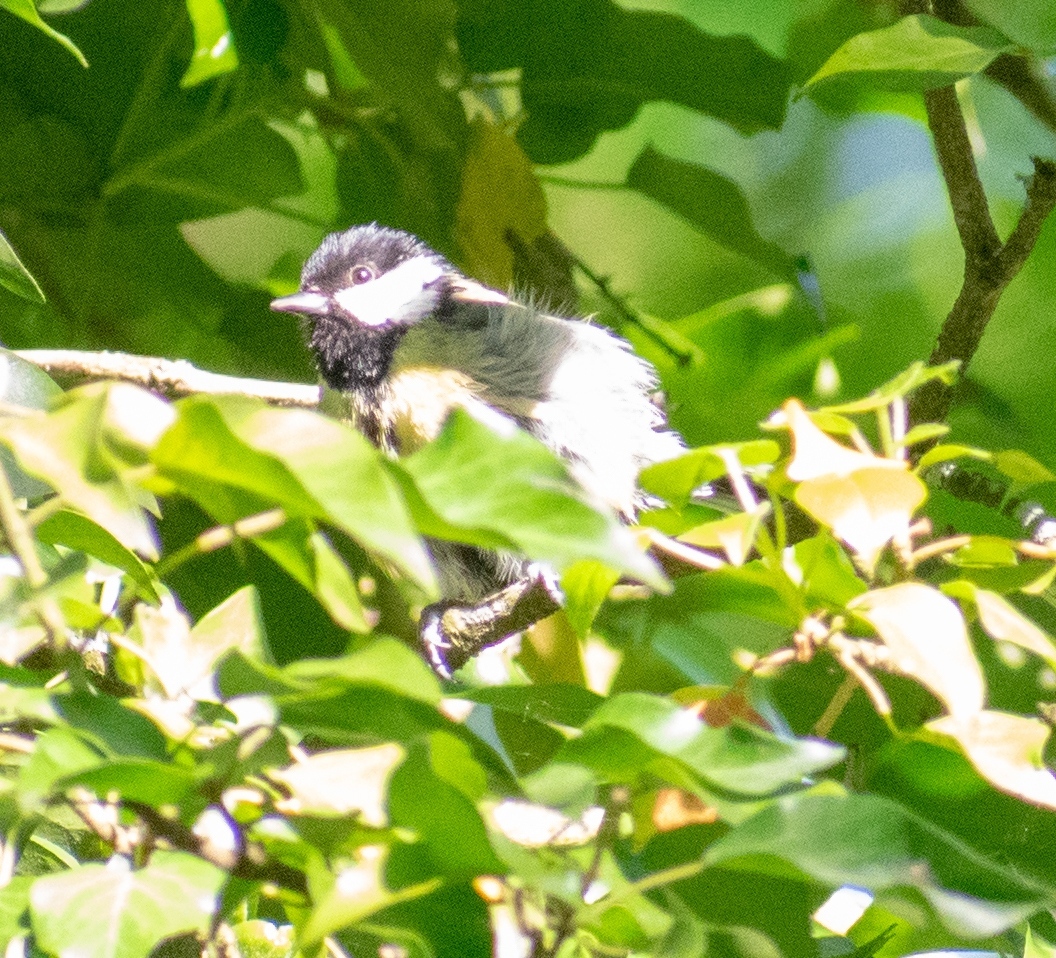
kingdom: Animalia
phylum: Chordata
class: Aves
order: Passeriformes
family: Paridae
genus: Parus
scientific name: Parus major
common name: Great tit
